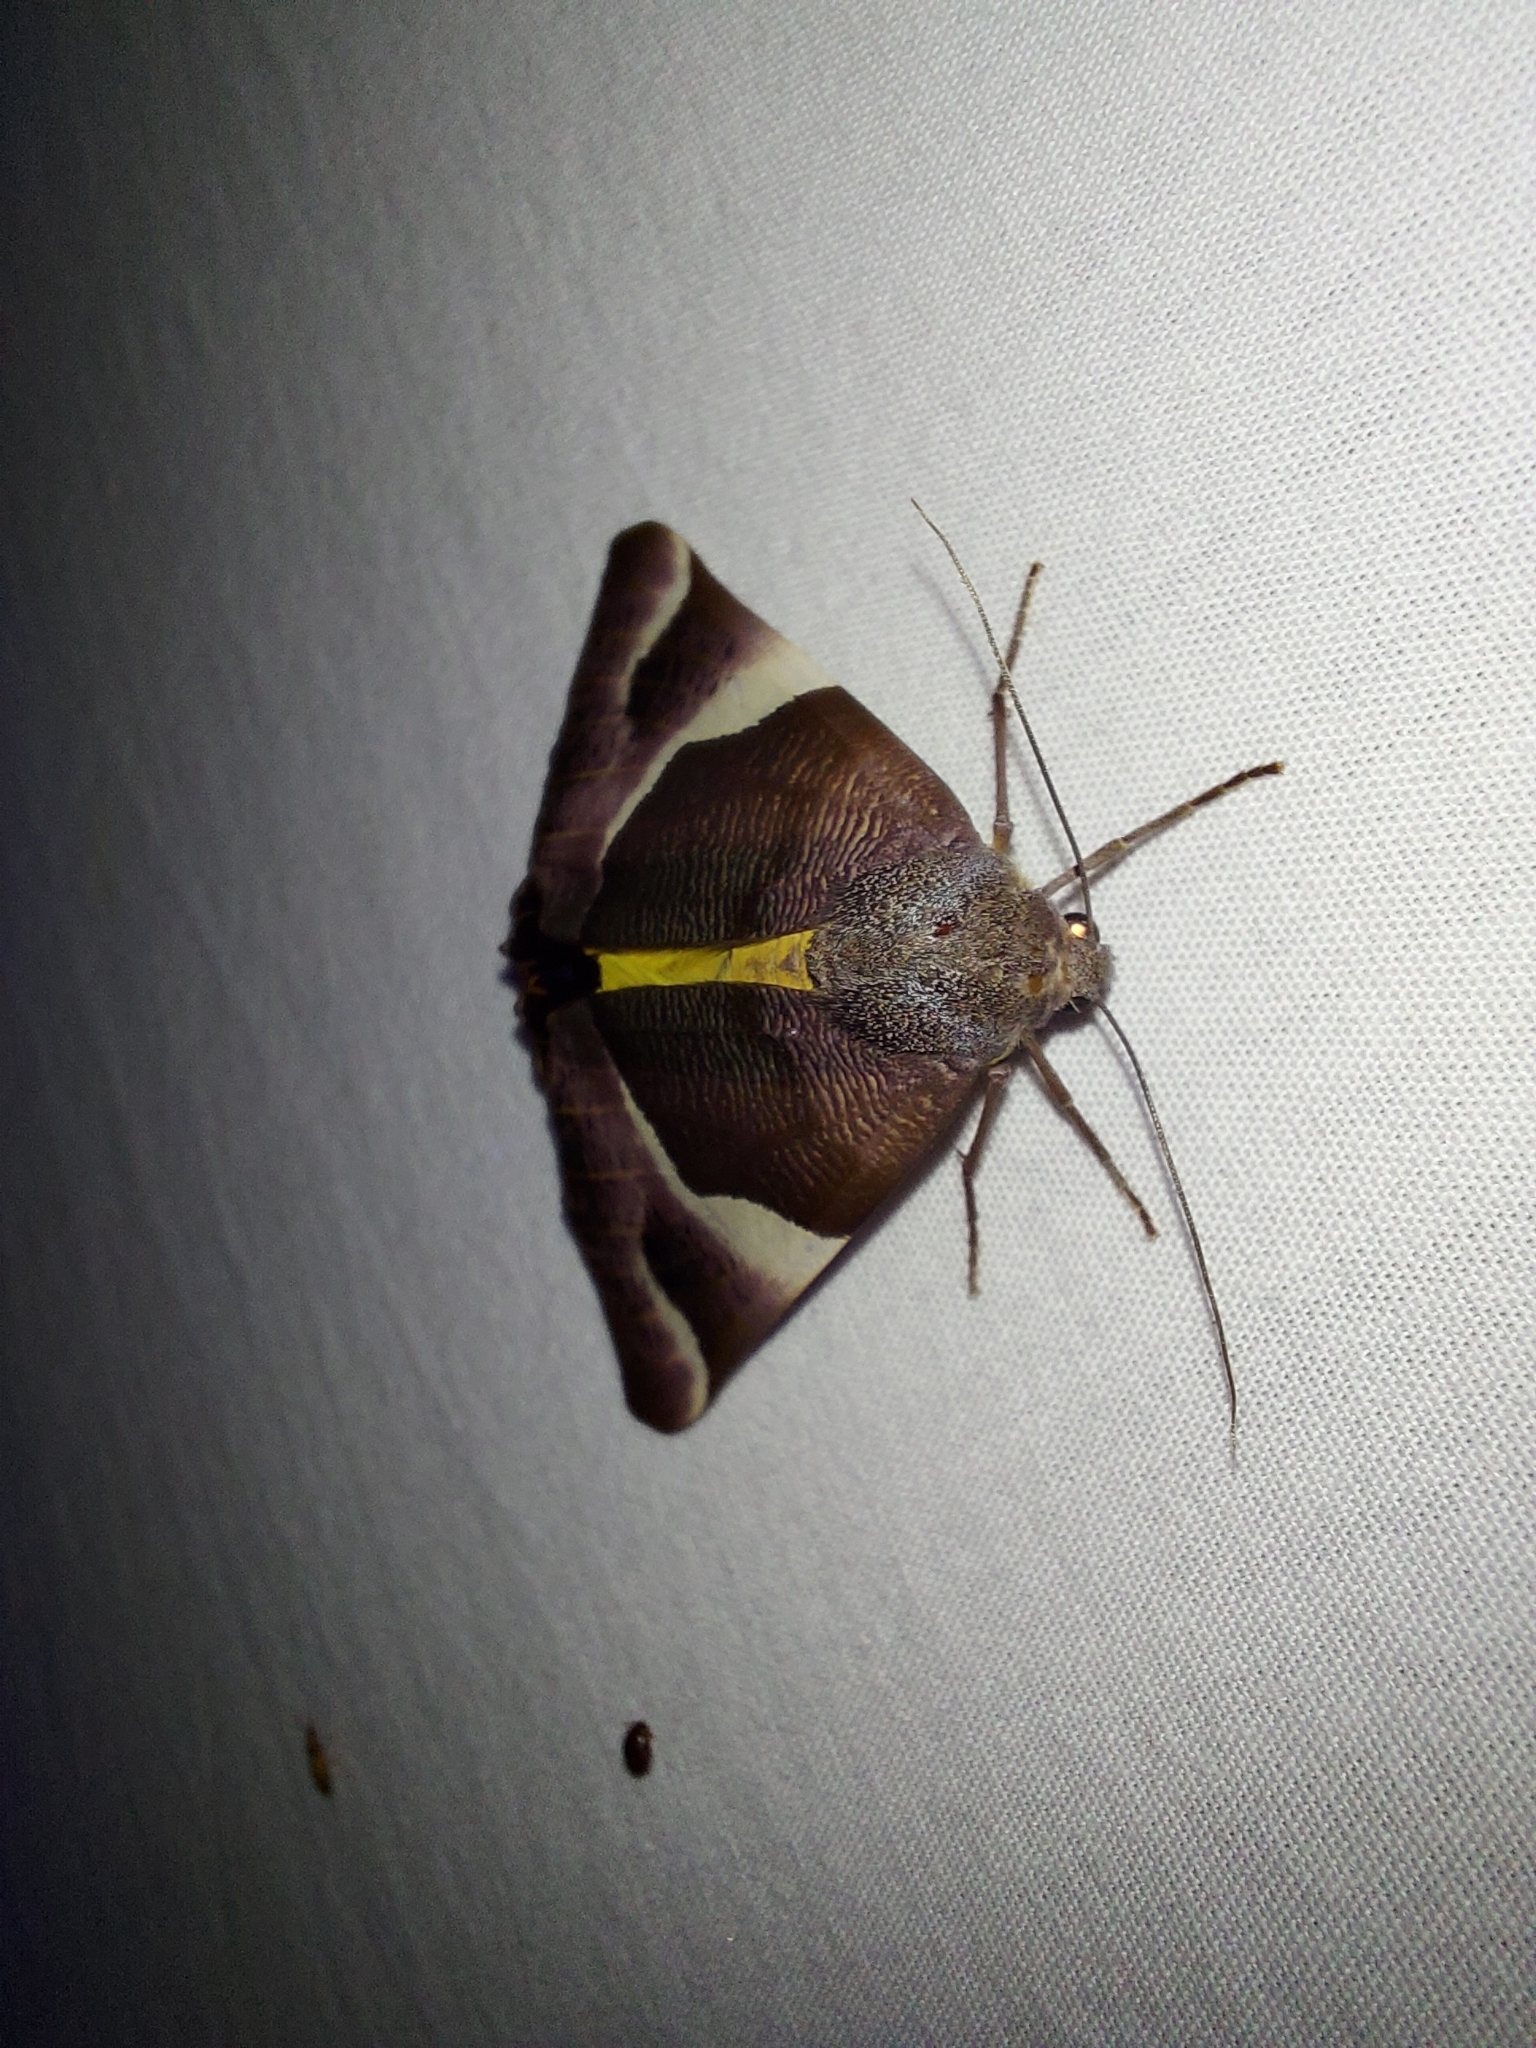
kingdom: Animalia
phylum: Arthropoda
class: Insecta
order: Lepidoptera
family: Geometridae
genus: Niceteria
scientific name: Niceteria macrocosma
